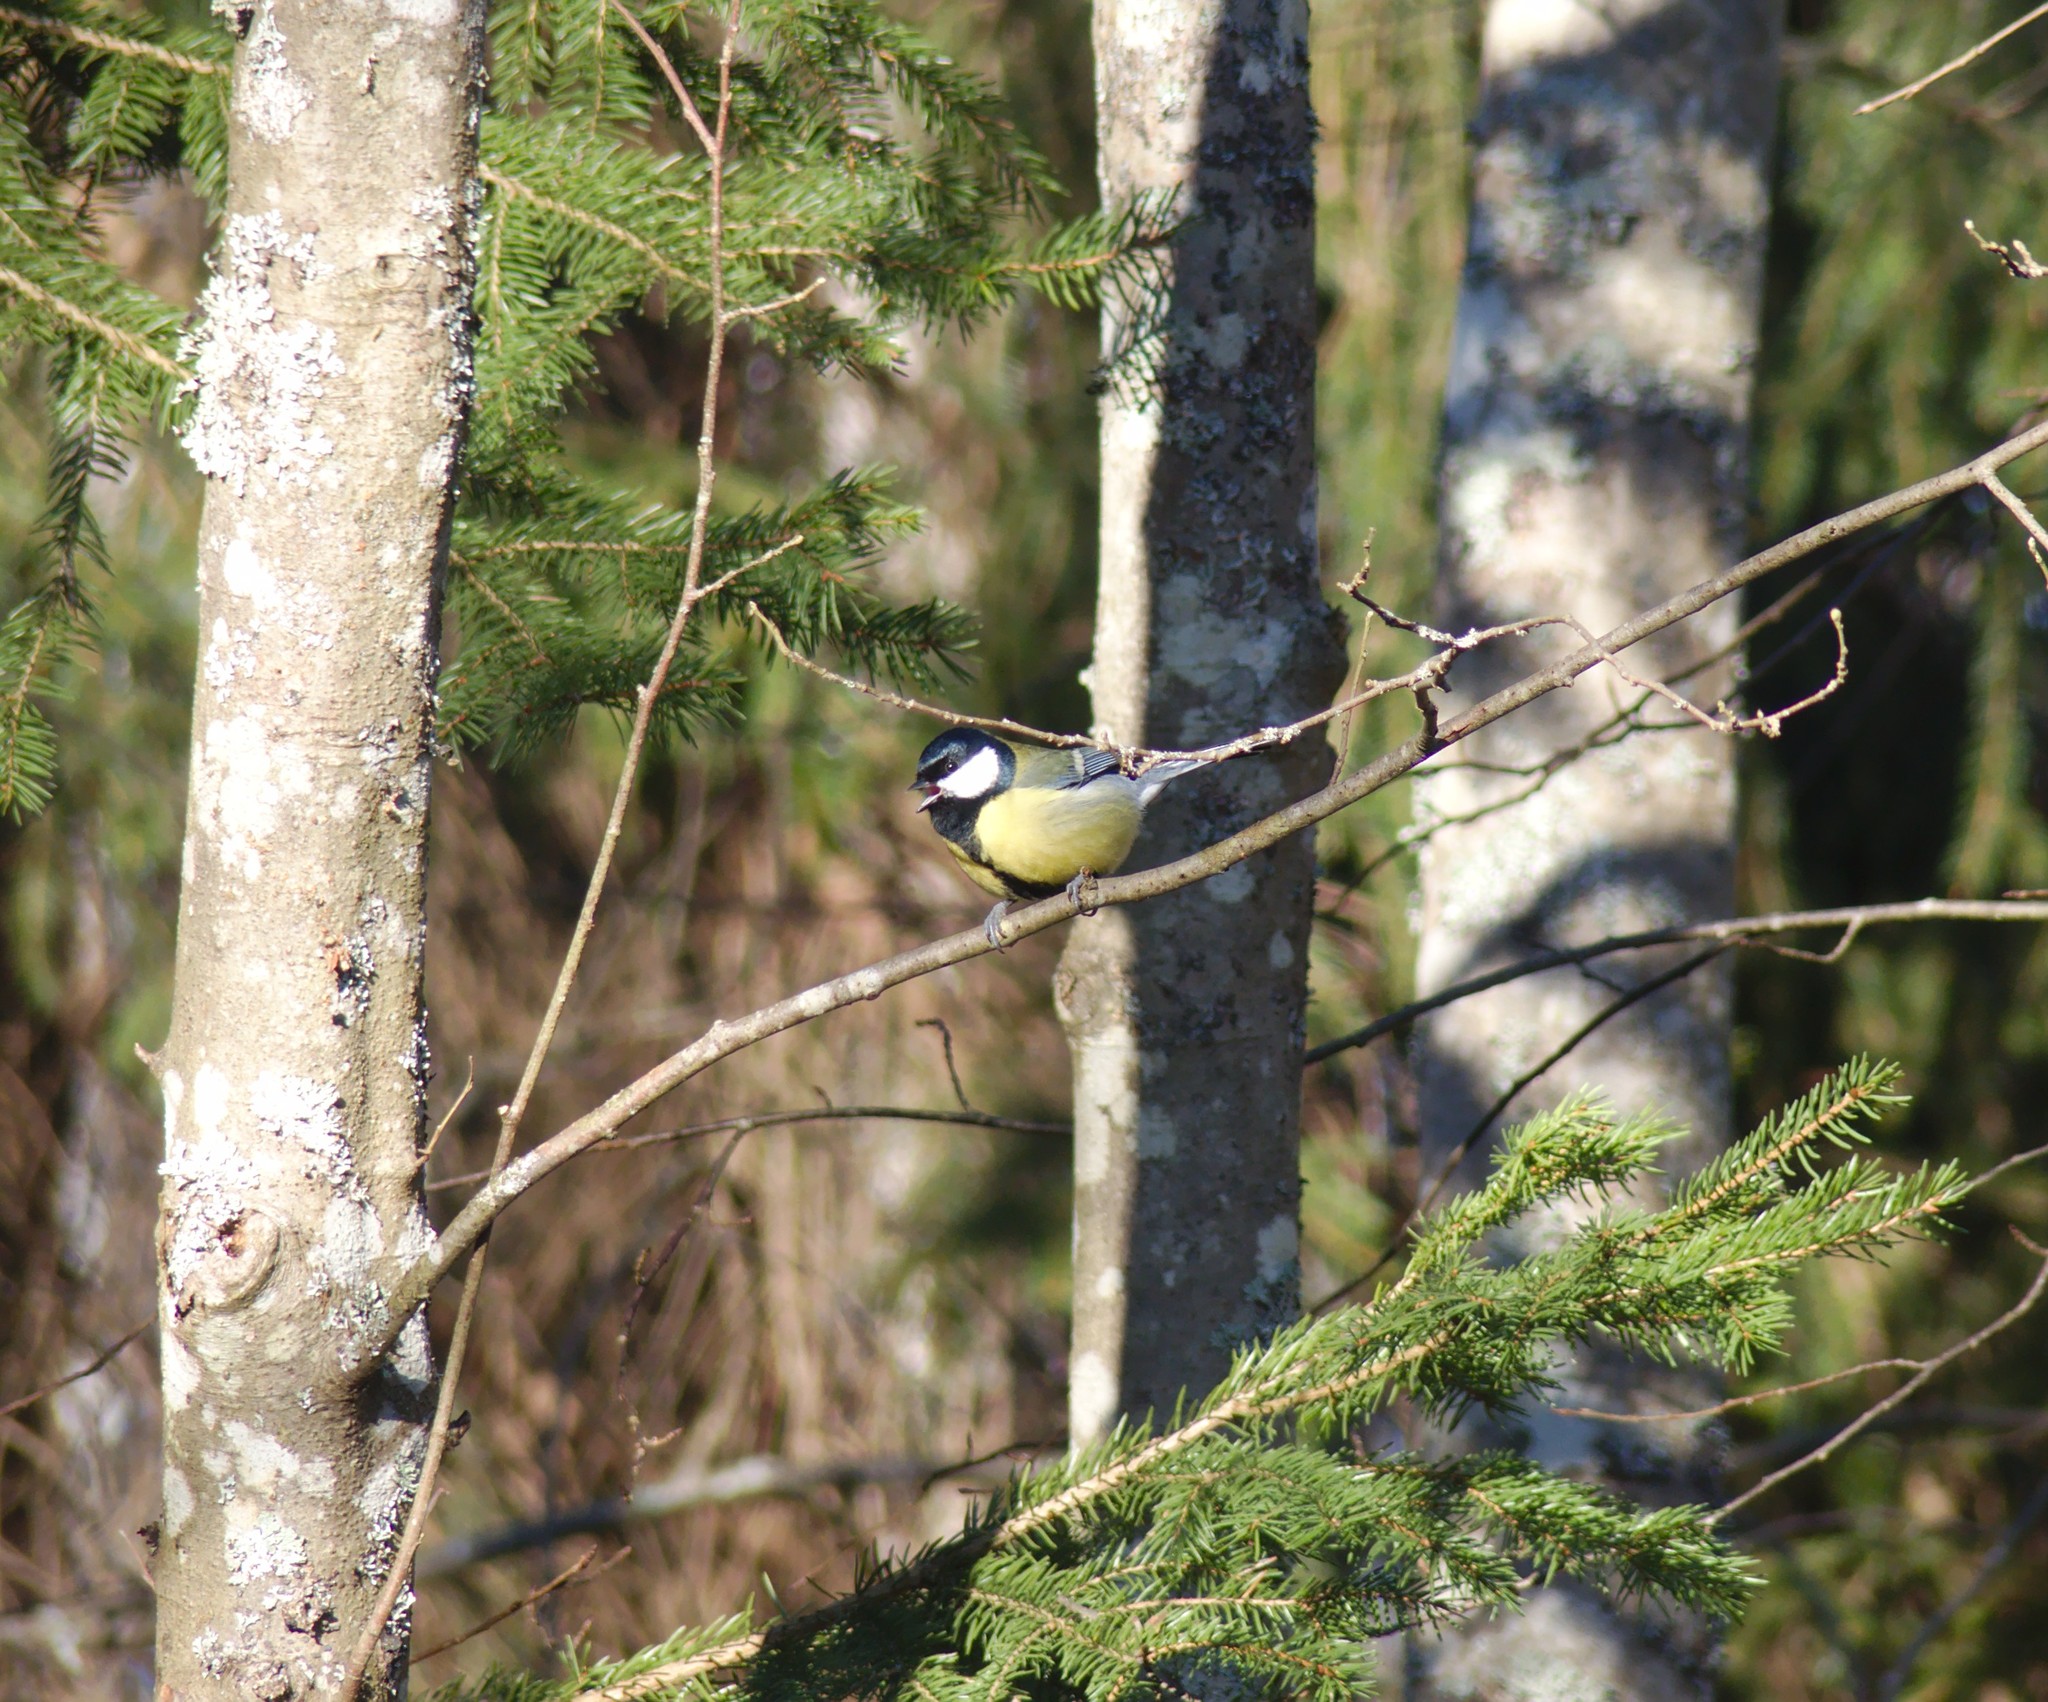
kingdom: Animalia
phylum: Chordata
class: Aves
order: Passeriformes
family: Paridae
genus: Parus
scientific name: Parus major
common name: Great tit
